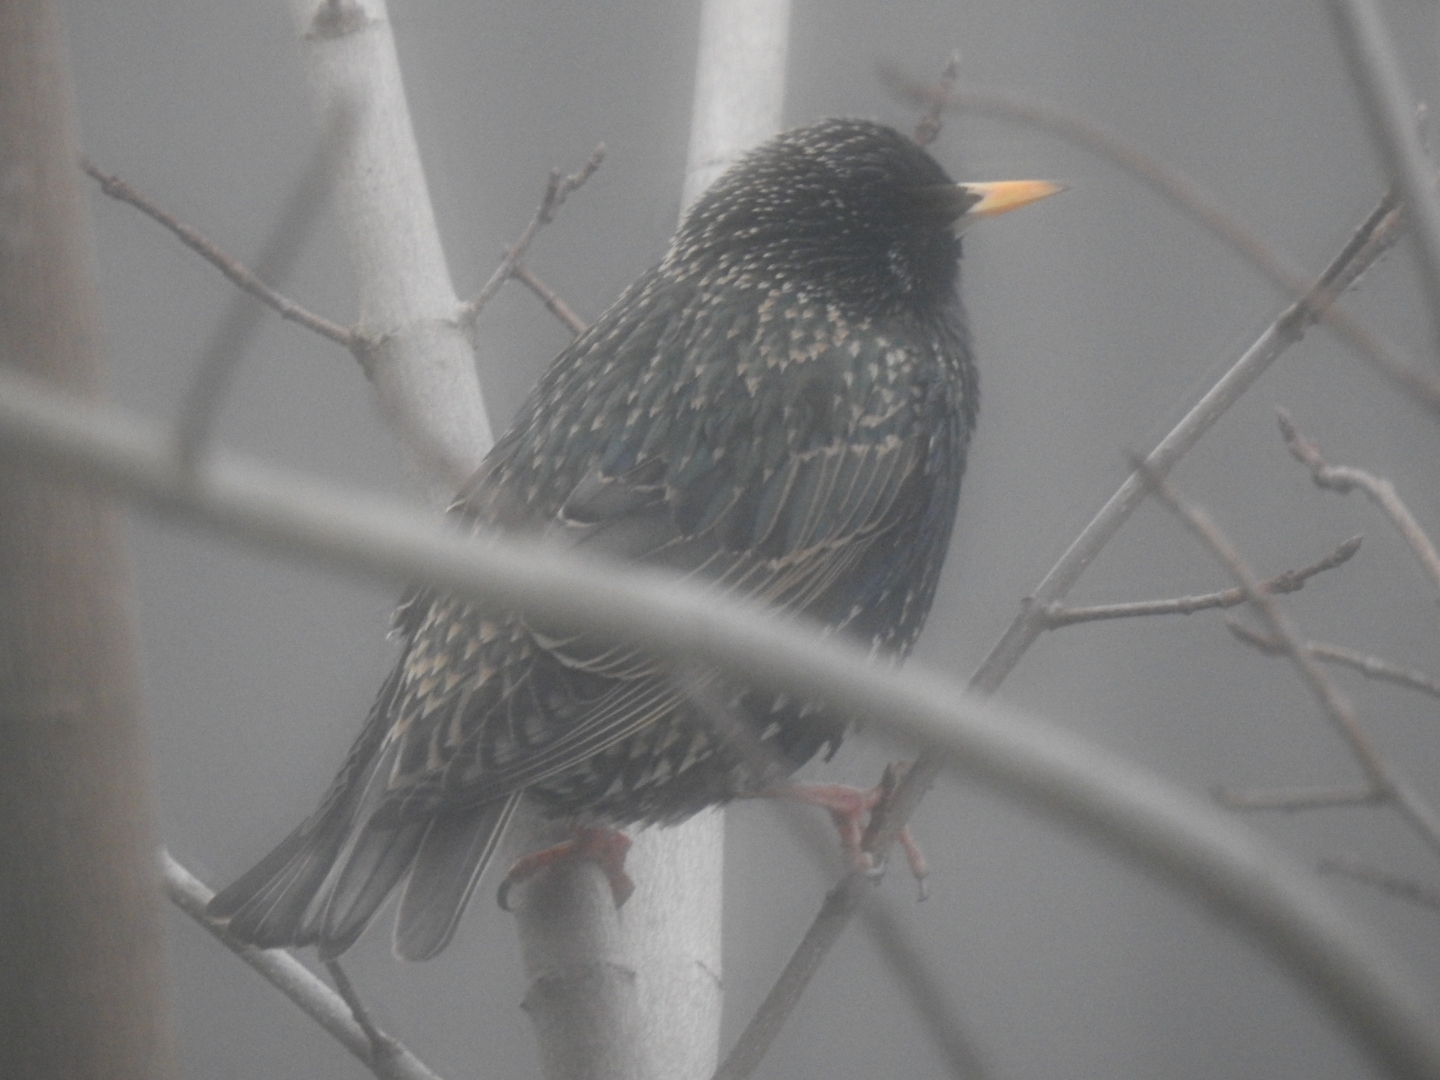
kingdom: Animalia
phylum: Chordata
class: Aves
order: Passeriformes
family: Sturnidae
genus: Sturnus
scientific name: Sturnus vulgaris
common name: Common starling
